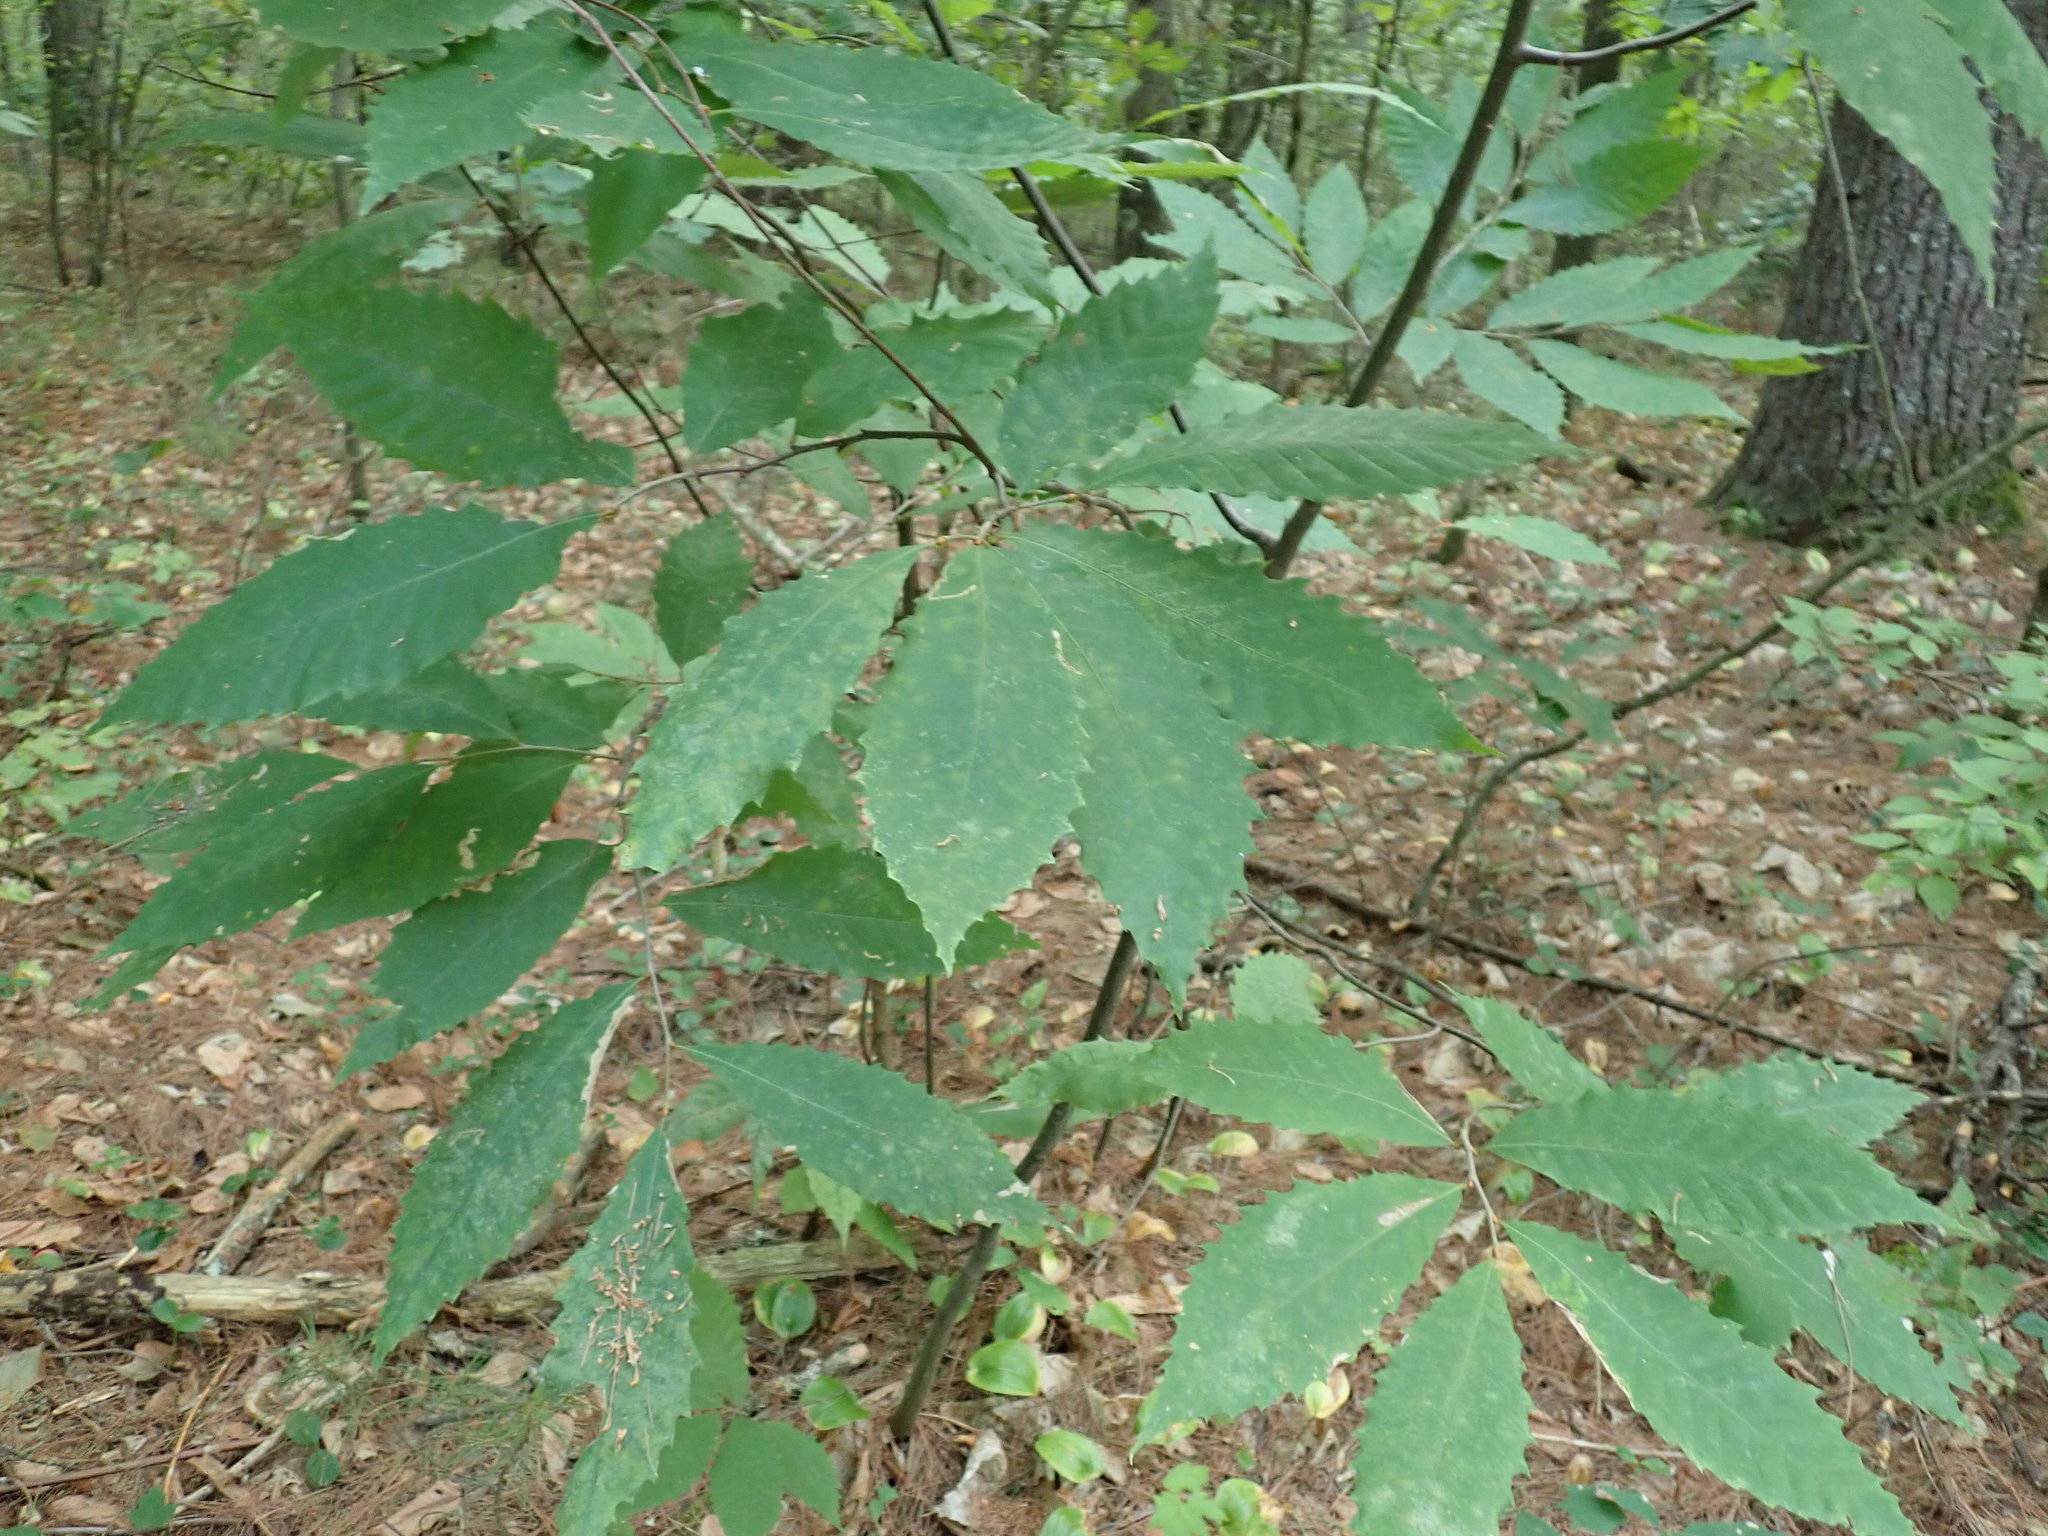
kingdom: Plantae
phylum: Tracheophyta
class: Magnoliopsida
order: Fagales
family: Fagaceae
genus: Castanea
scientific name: Castanea dentata
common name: American chestnut
